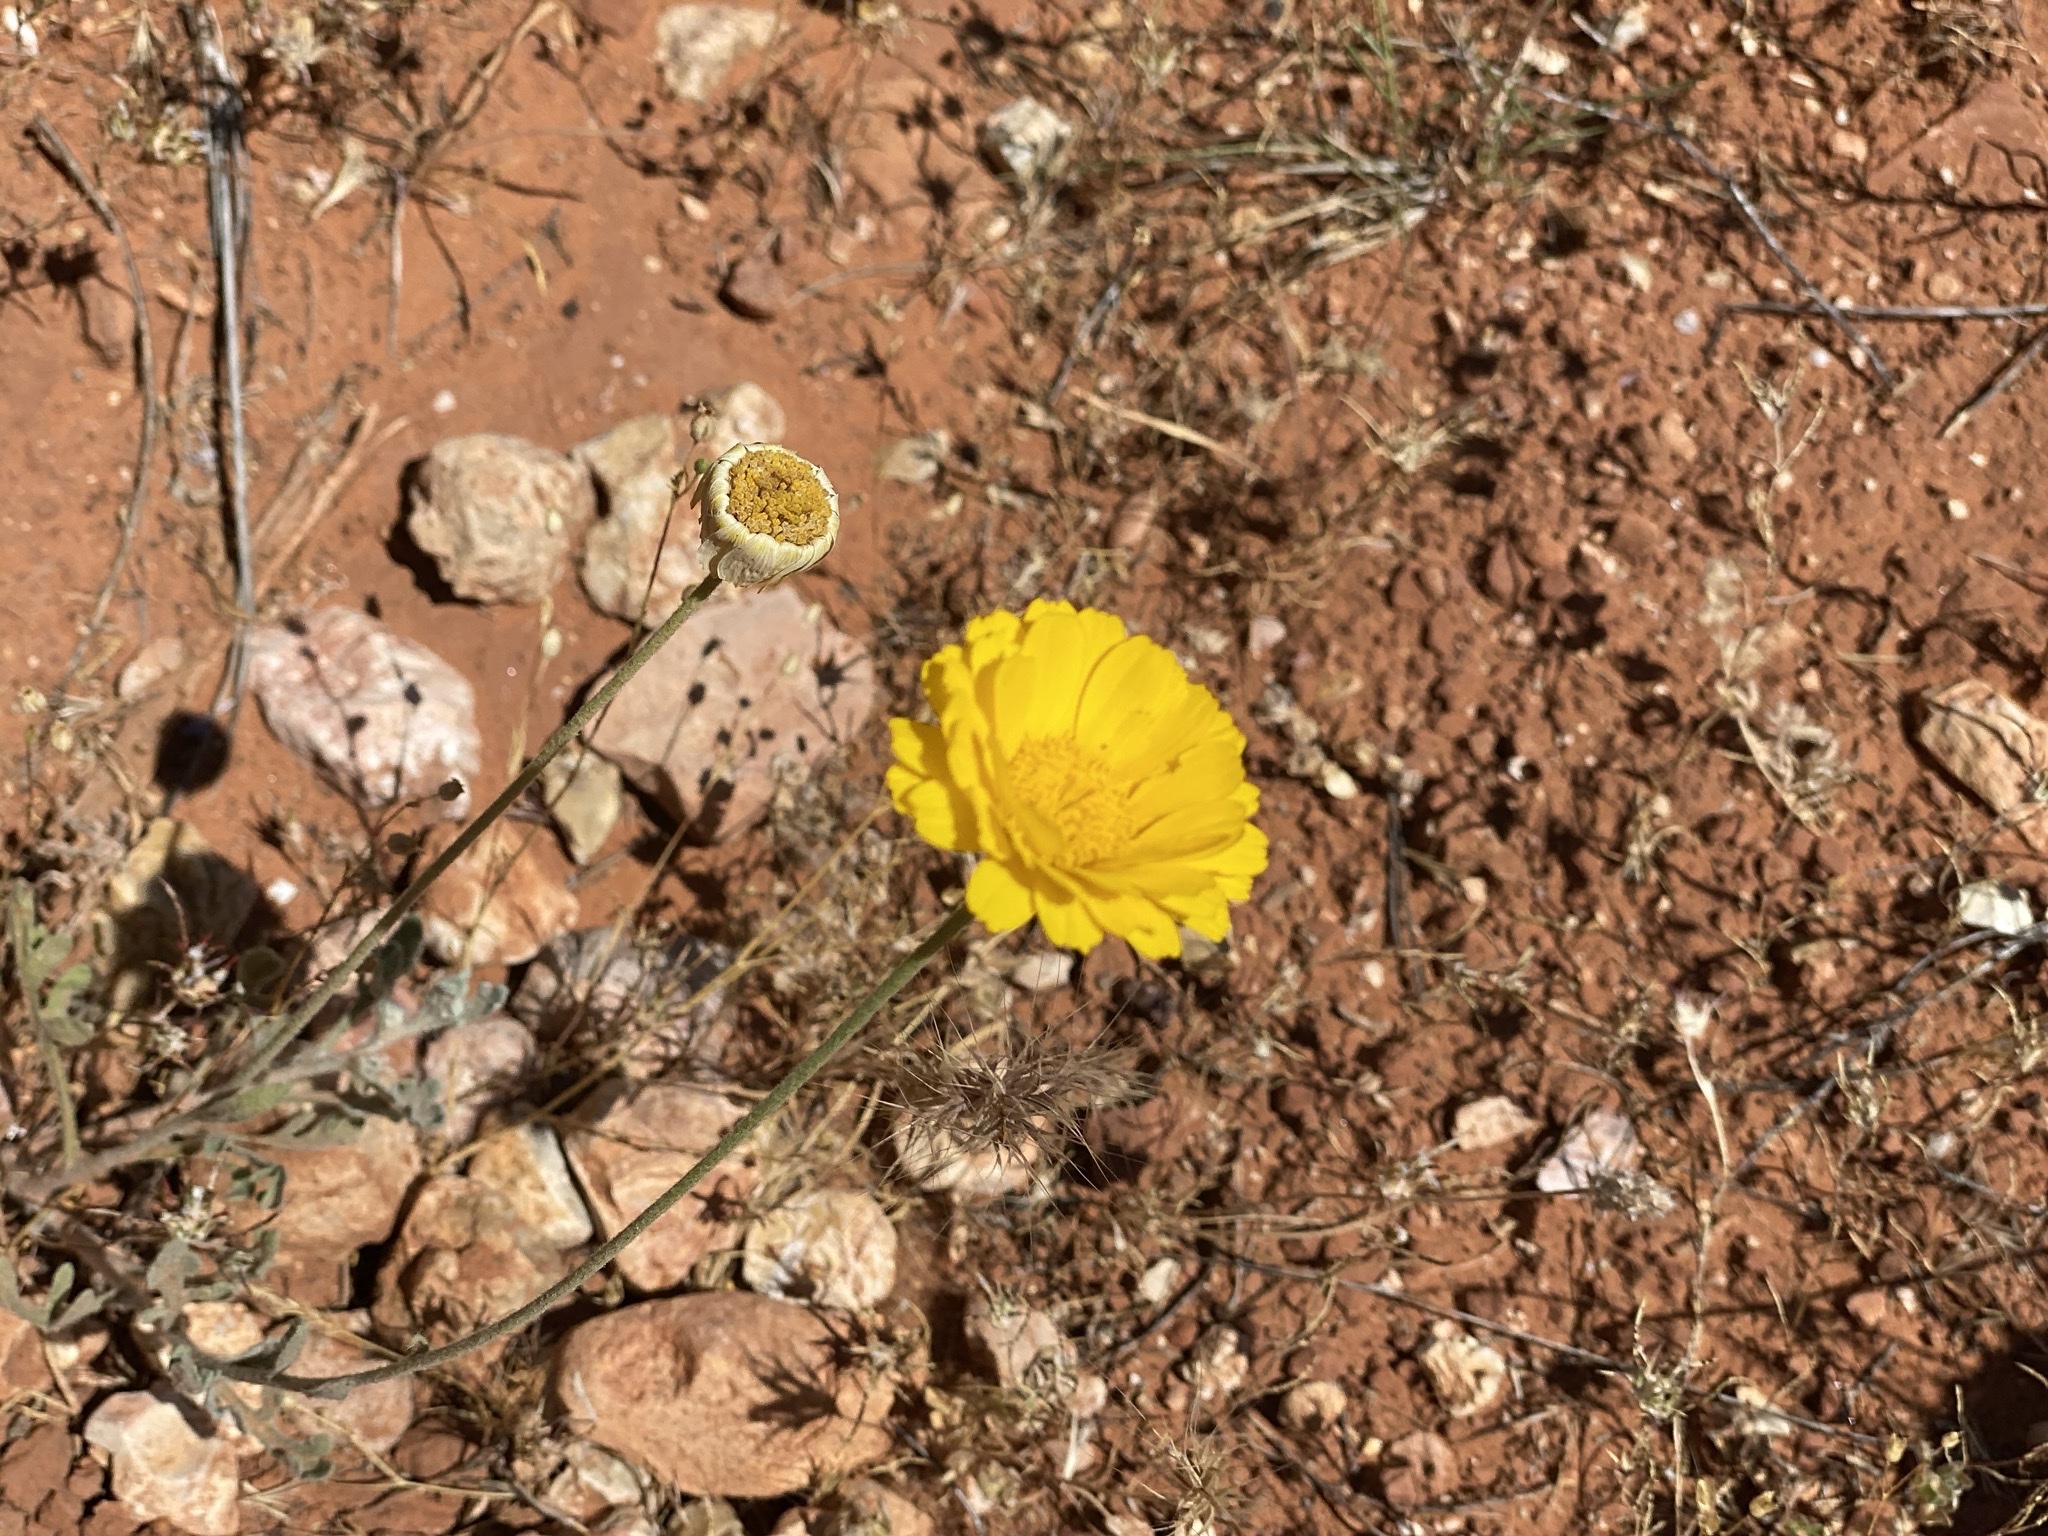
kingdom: Plantae
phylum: Tracheophyta
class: Magnoliopsida
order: Asterales
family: Asteraceae
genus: Baileya
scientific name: Baileya multiradiata
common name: Desert-marigold
